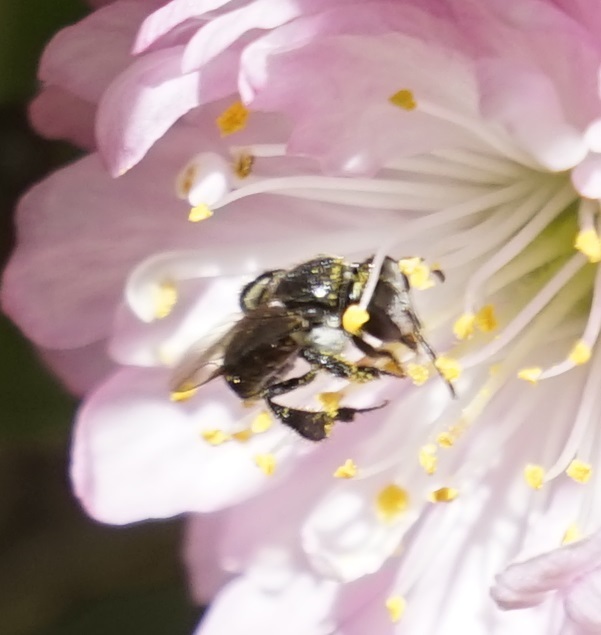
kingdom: Animalia
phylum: Arthropoda
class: Insecta
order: Hymenoptera
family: Apidae
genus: Tetragonula
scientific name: Tetragonula carbonaria
